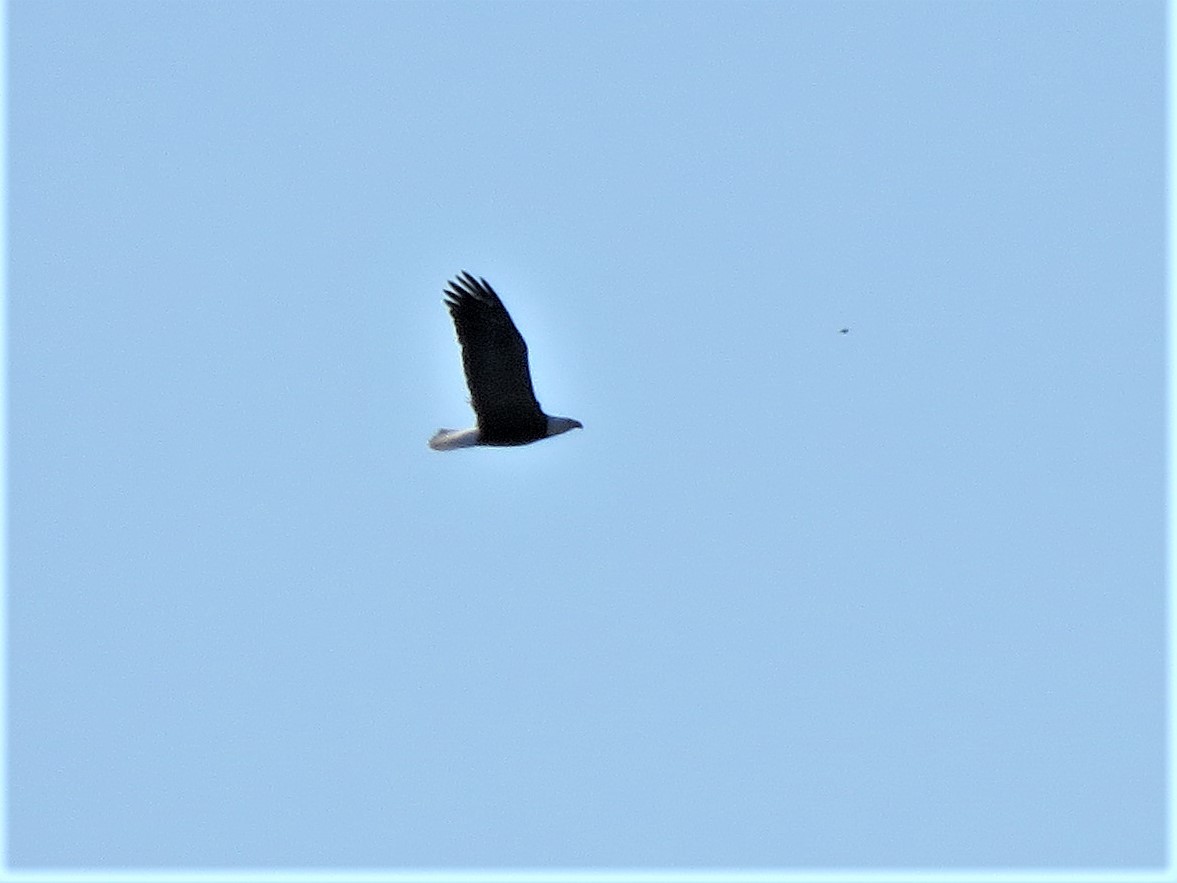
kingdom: Animalia
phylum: Chordata
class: Aves
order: Accipitriformes
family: Accipitridae
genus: Haliaeetus
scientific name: Haliaeetus leucocephalus
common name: Bald eagle
